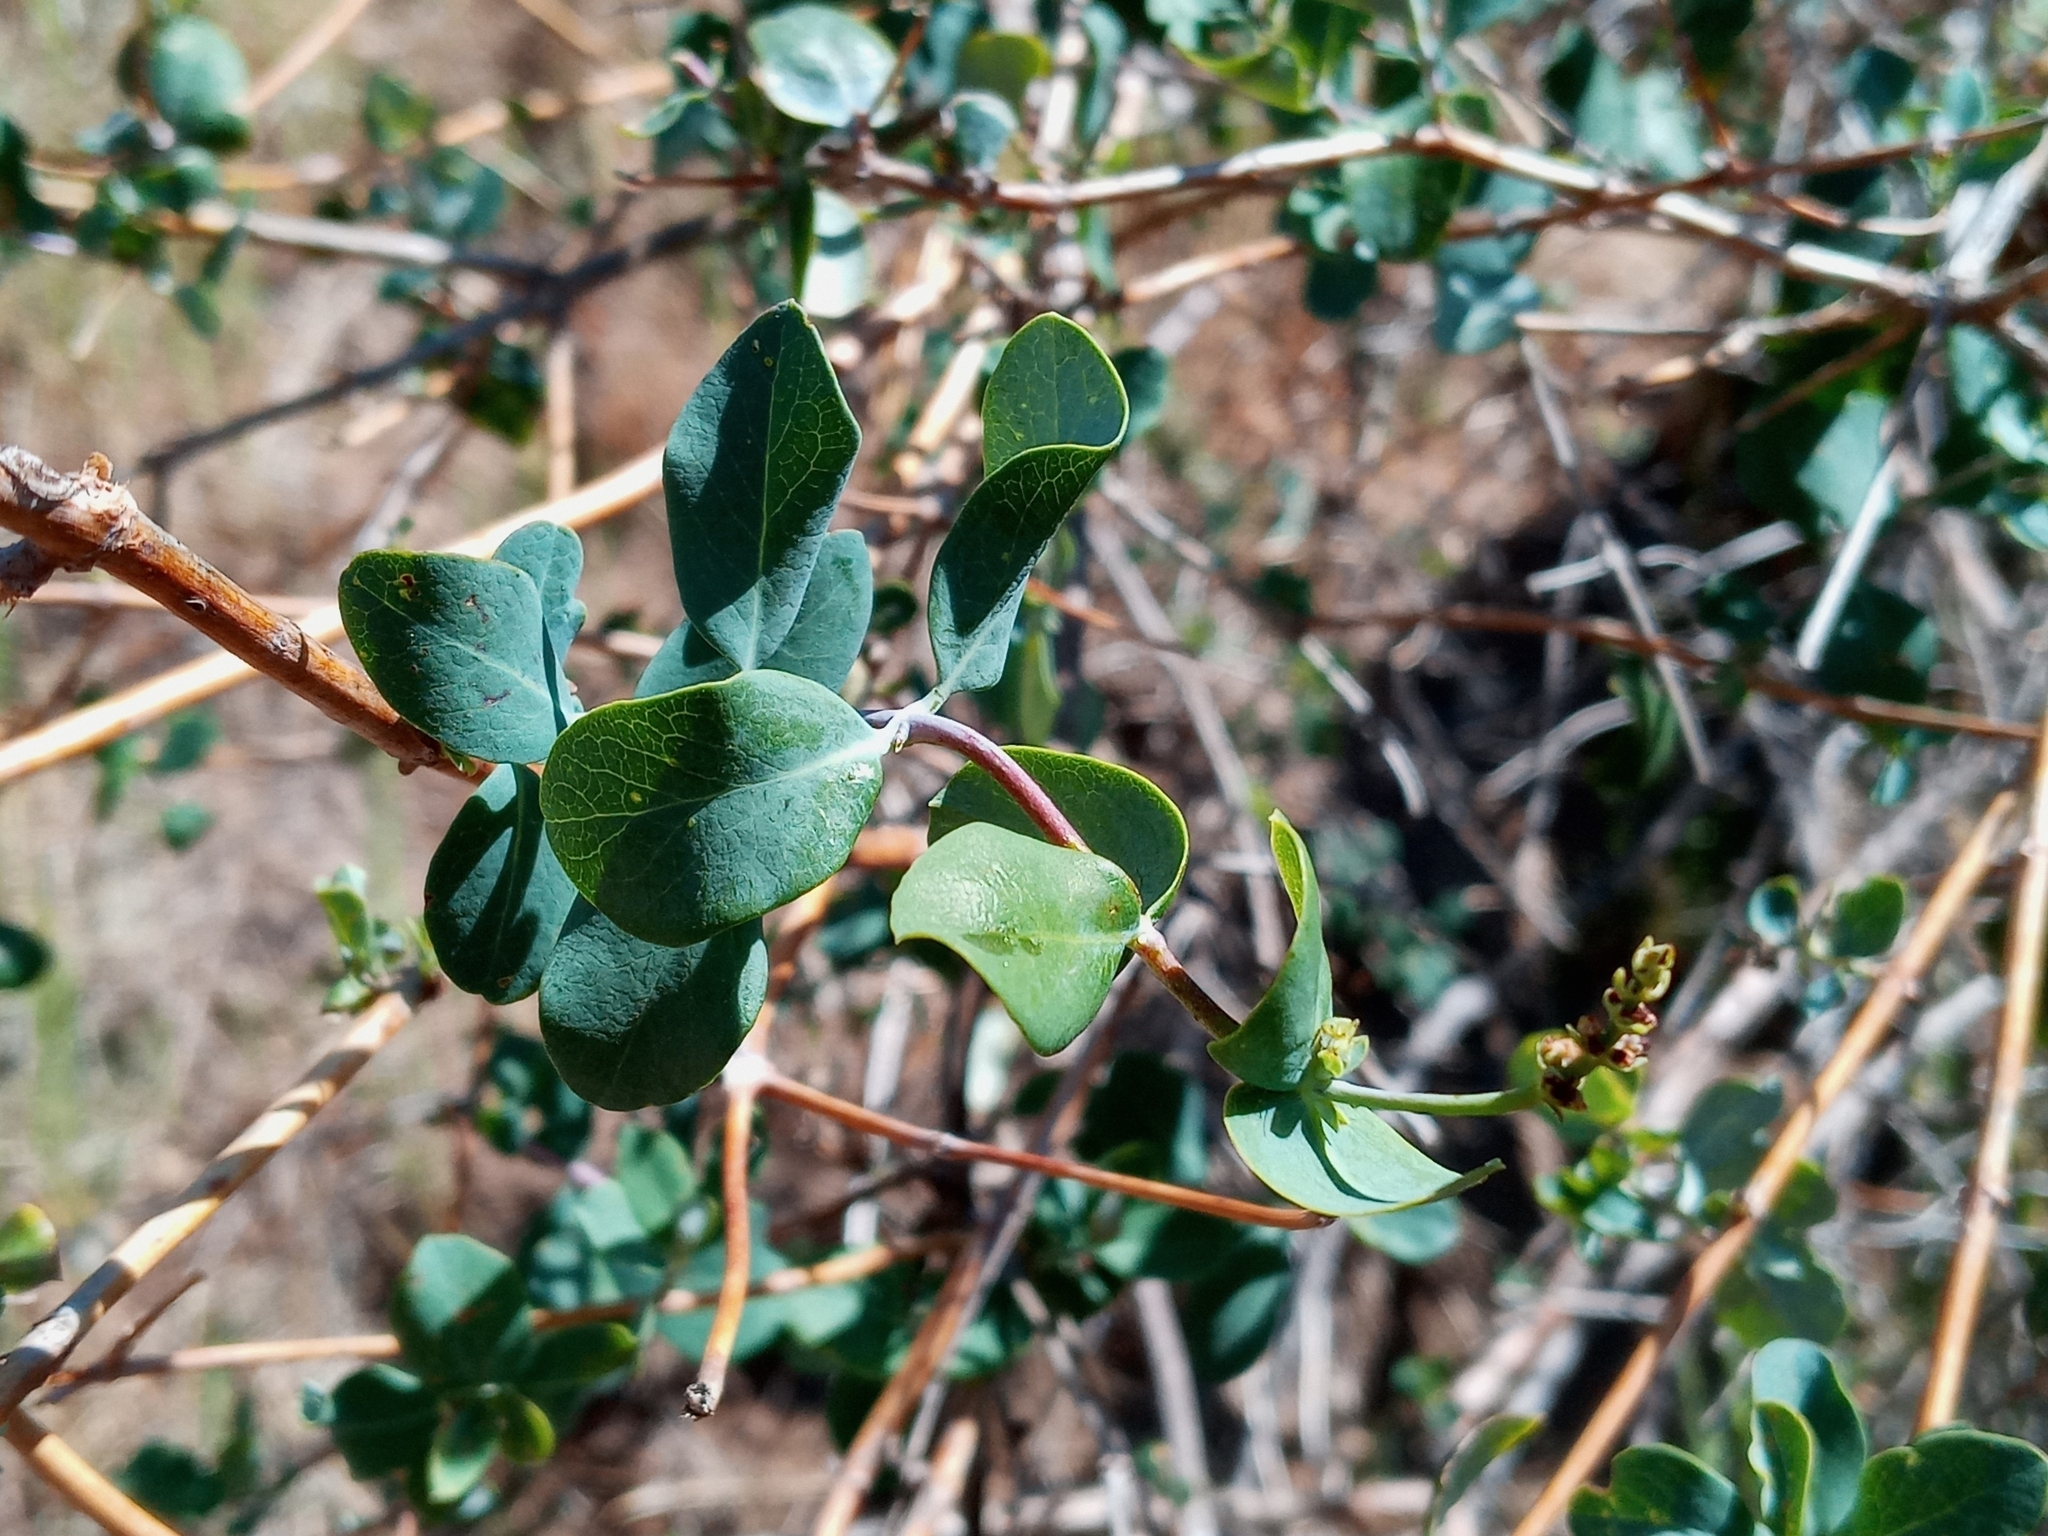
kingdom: Plantae
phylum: Tracheophyta
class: Magnoliopsida
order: Dipsacales
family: Caprifoliaceae
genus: Lonicera
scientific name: Lonicera interrupta
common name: Chaparral honeysuckle
